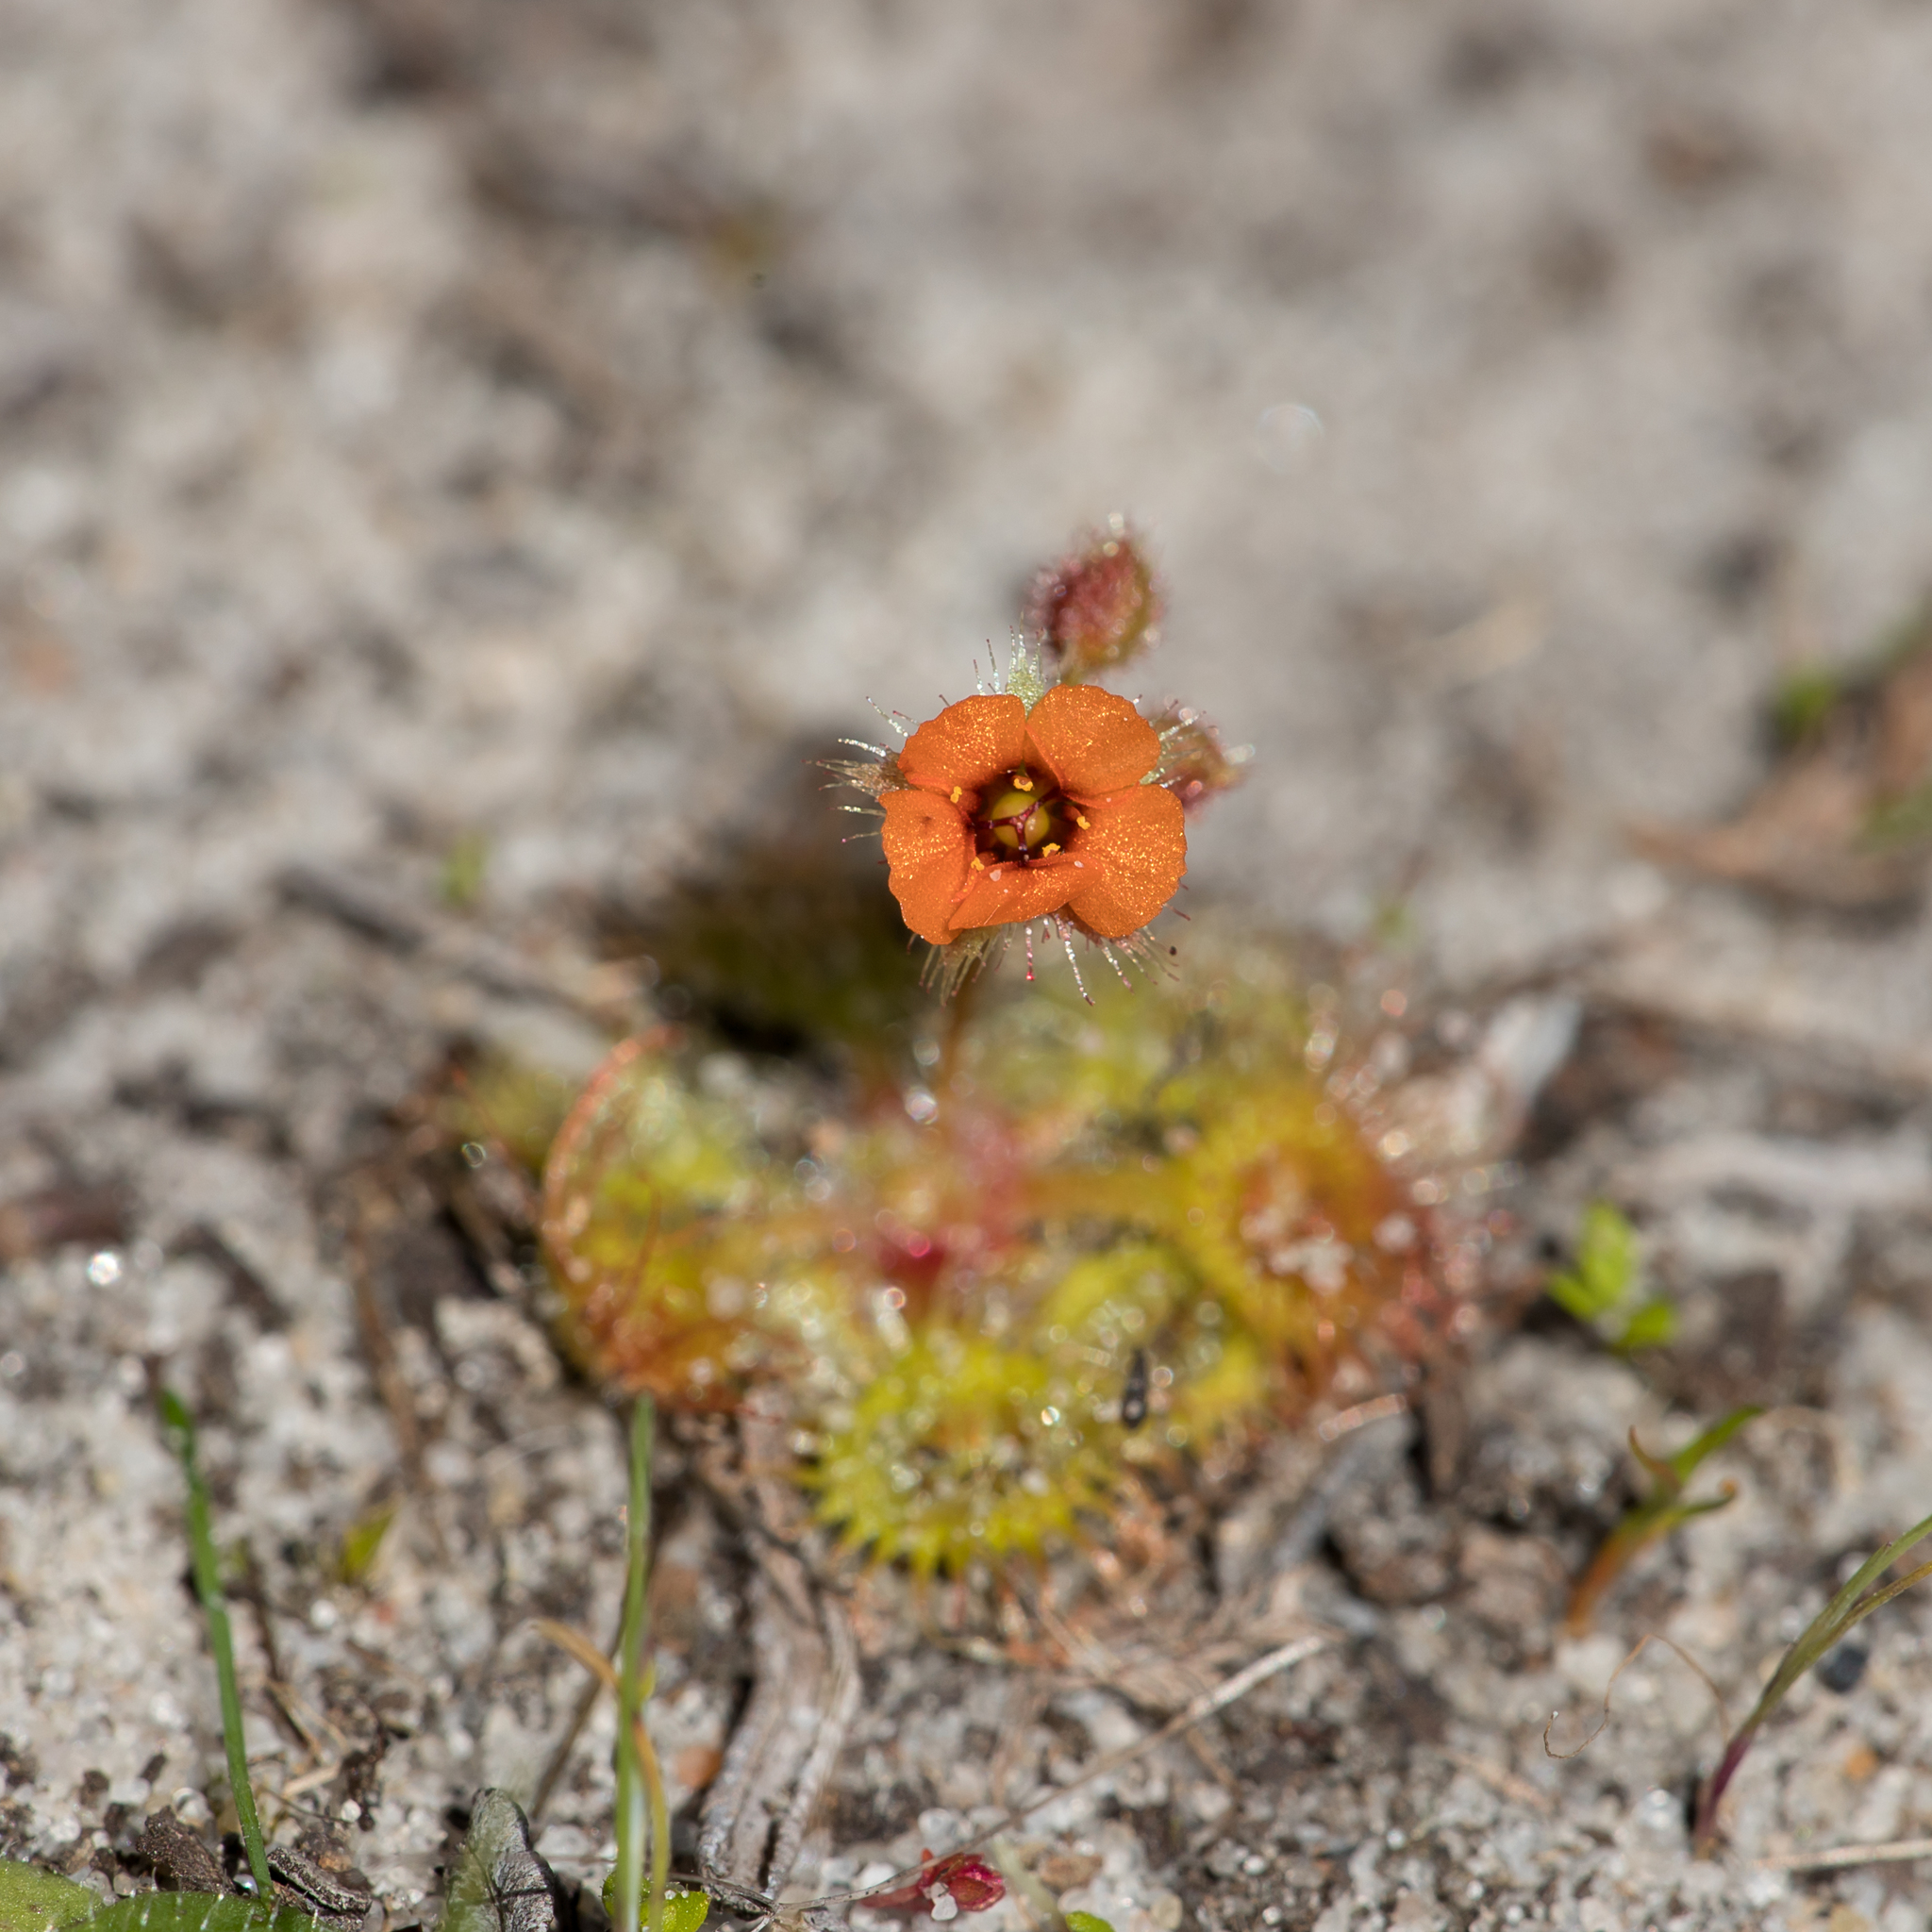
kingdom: Plantae
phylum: Tracheophyta
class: Magnoliopsida
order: Caryophyllales
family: Droseraceae
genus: Drosera
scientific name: Drosera glanduligera
